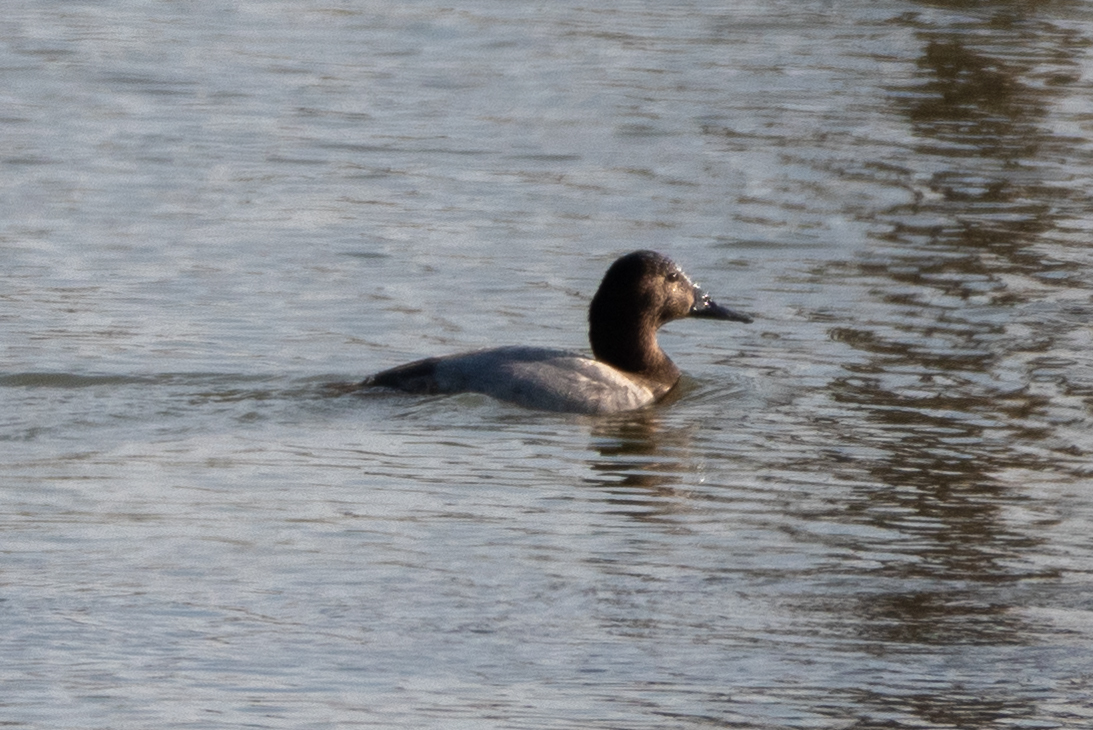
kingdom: Animalia
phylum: Chordata
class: Aves
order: Anseriformes
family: Anatidae
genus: Aythya
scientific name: Aythya valisineria
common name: Canvasback
